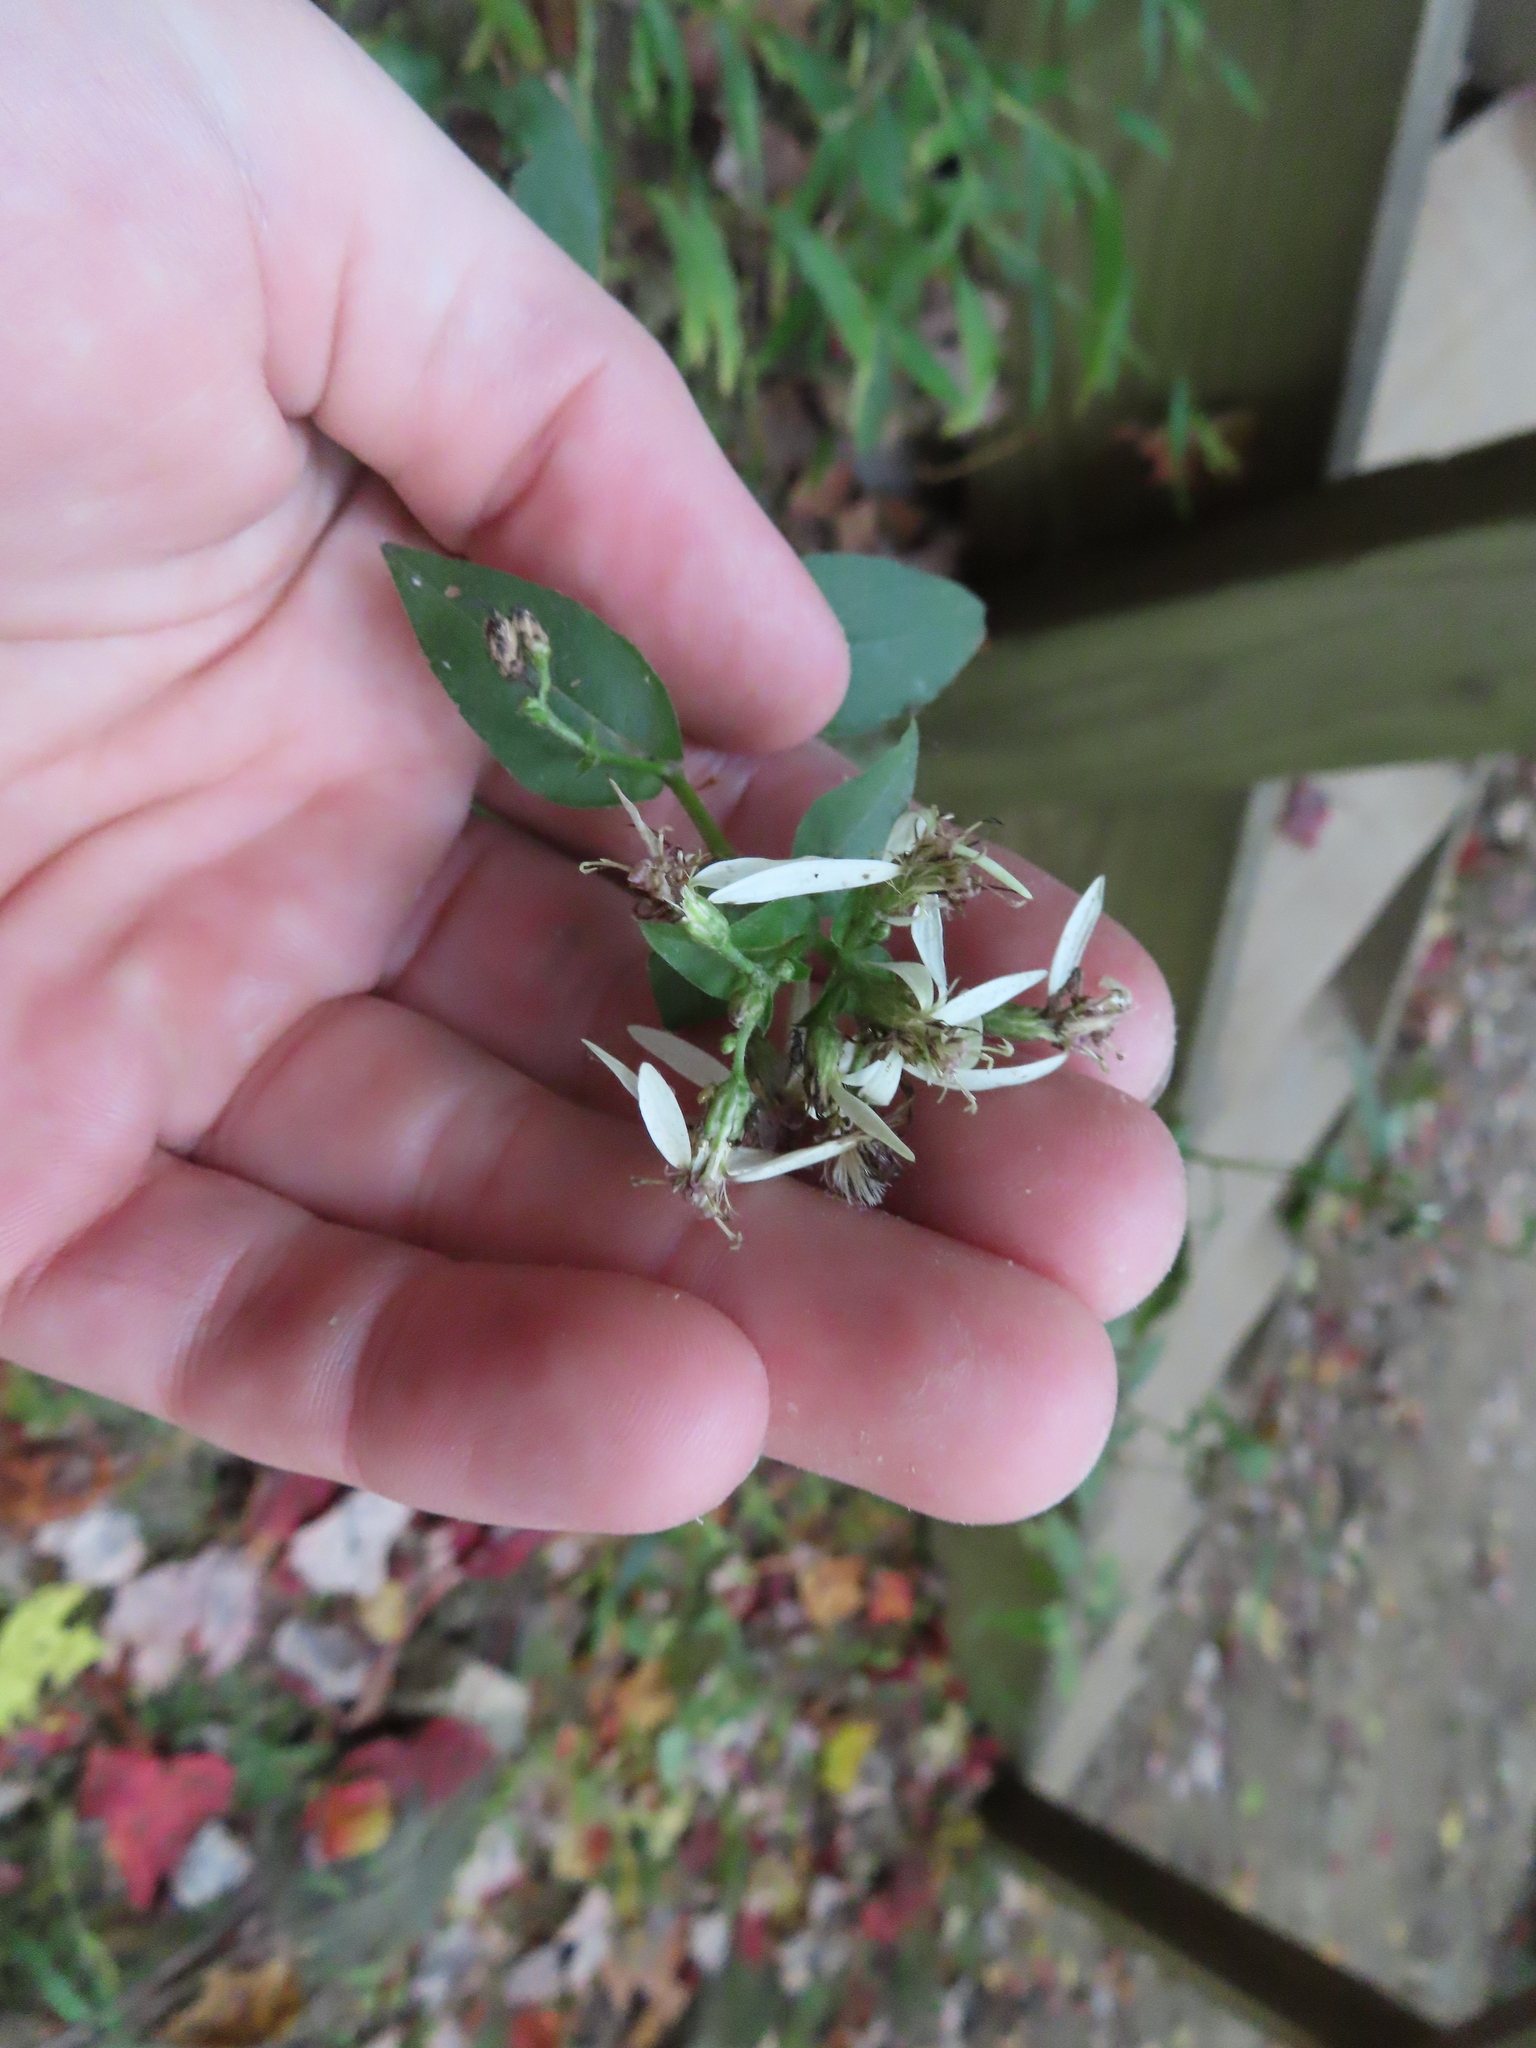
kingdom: Plantae
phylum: Tracheophyta
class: Magnoliopsida
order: Asterales
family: Asteraceae
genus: Eurybia
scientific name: Eurybia divaricata
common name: White wood aster
